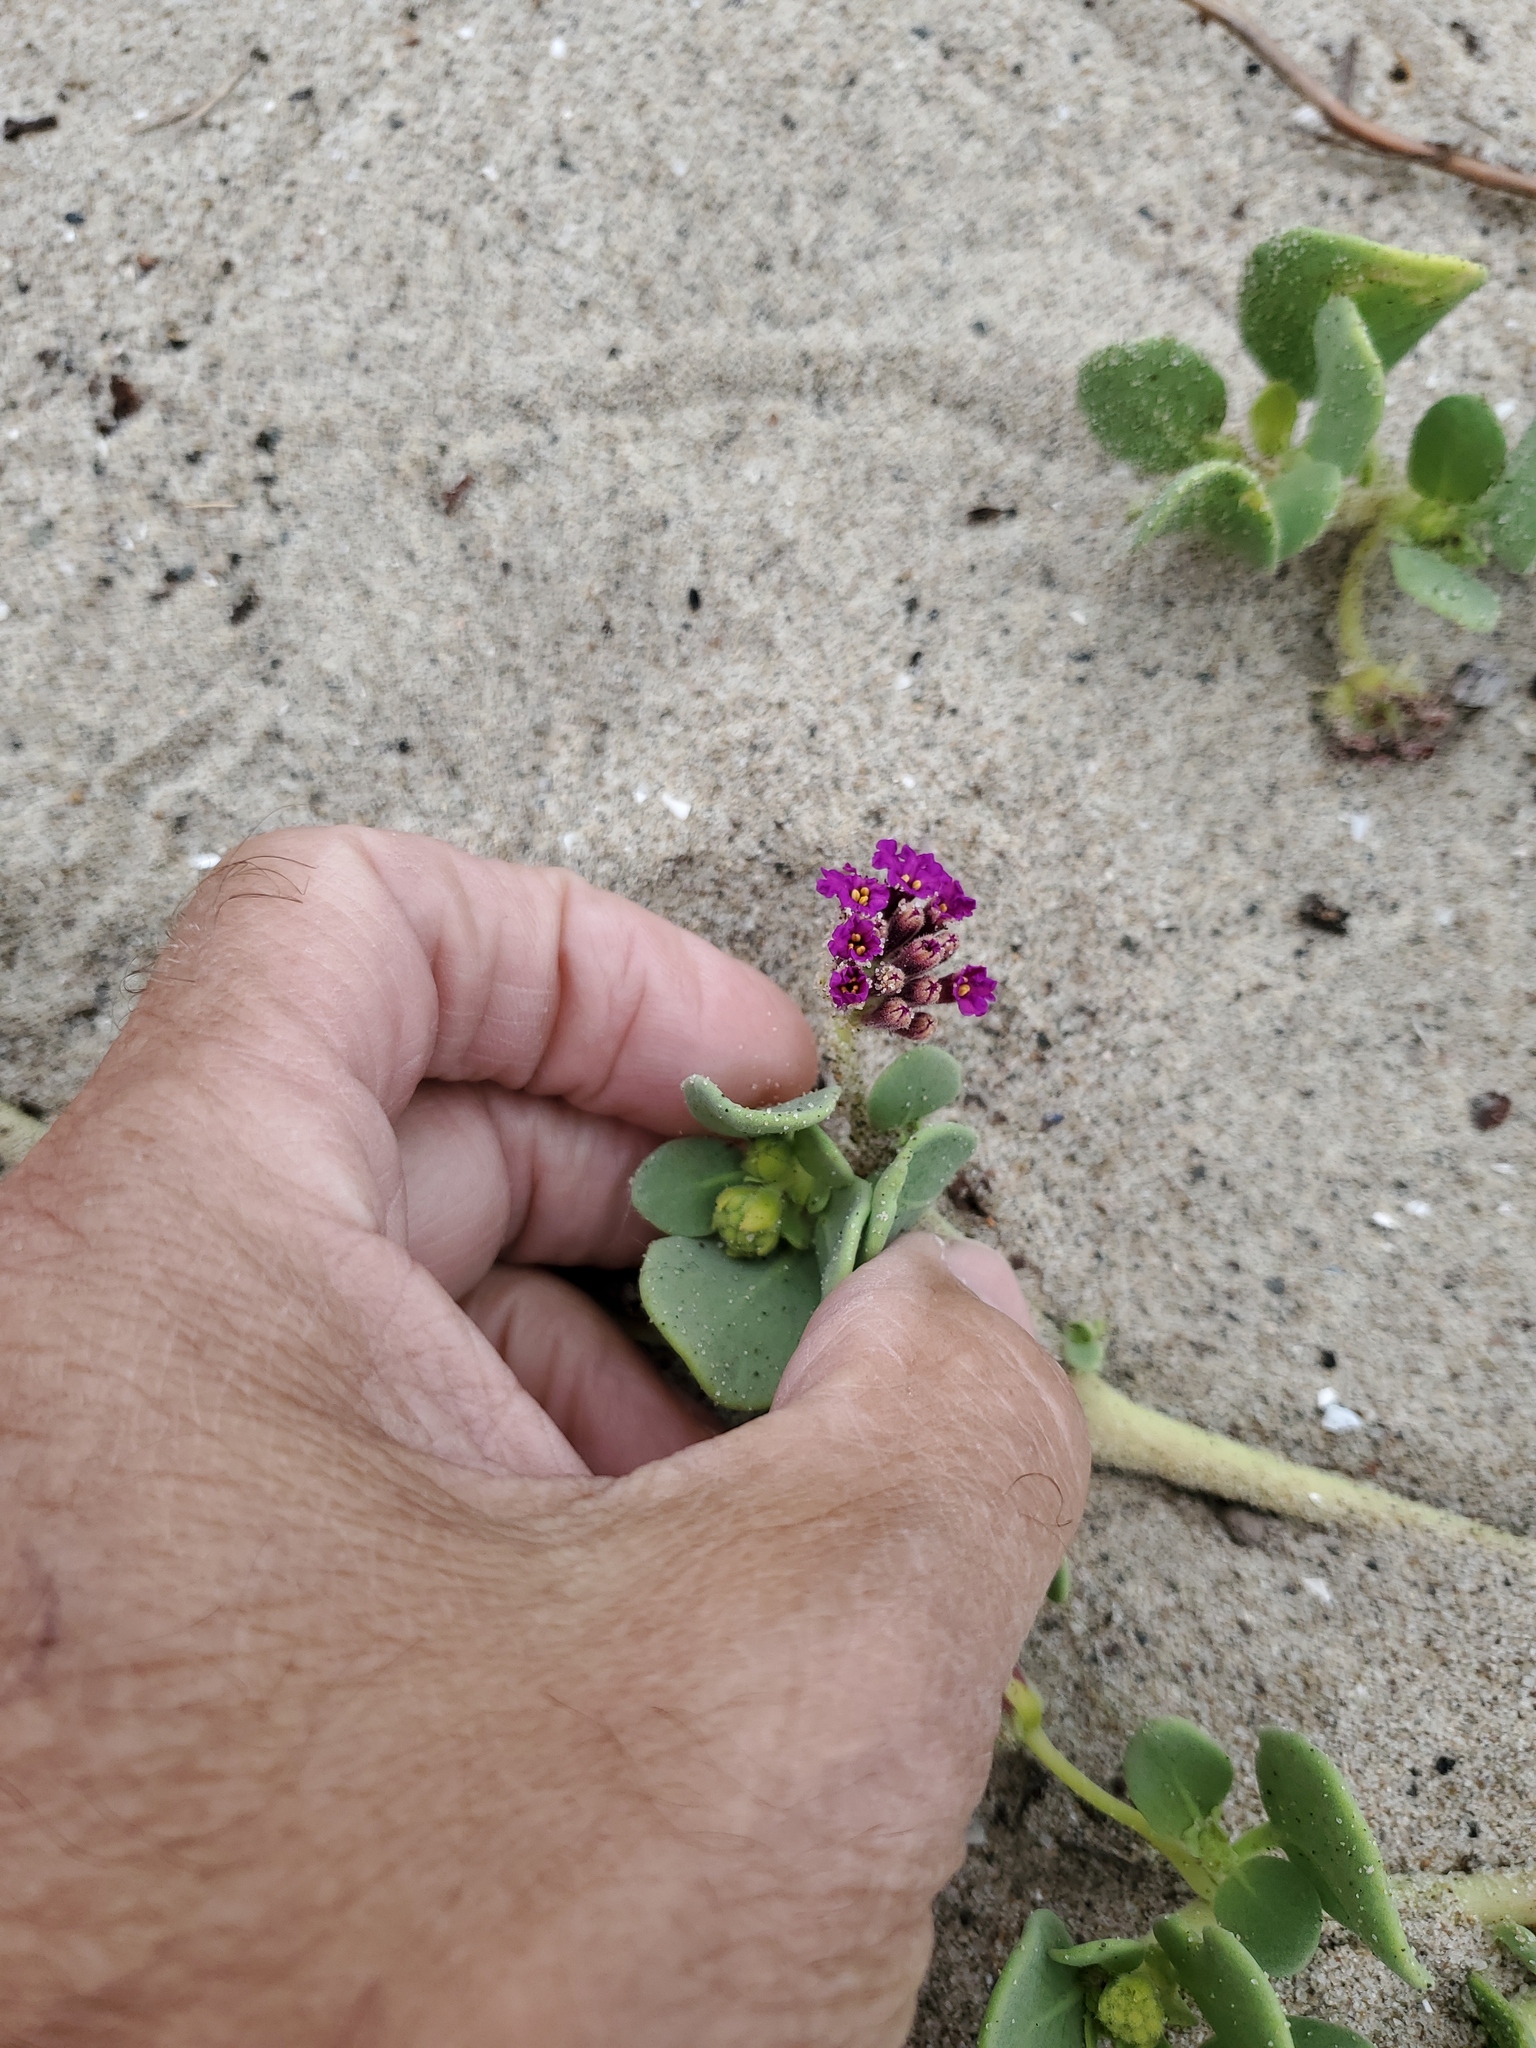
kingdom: Plantae
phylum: Tracheophyta
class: Magnoliopsida
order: Caryophyllales
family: Nyctaginaceae
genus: Abronia
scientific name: Abronia maritima
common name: Red sand-verbena
